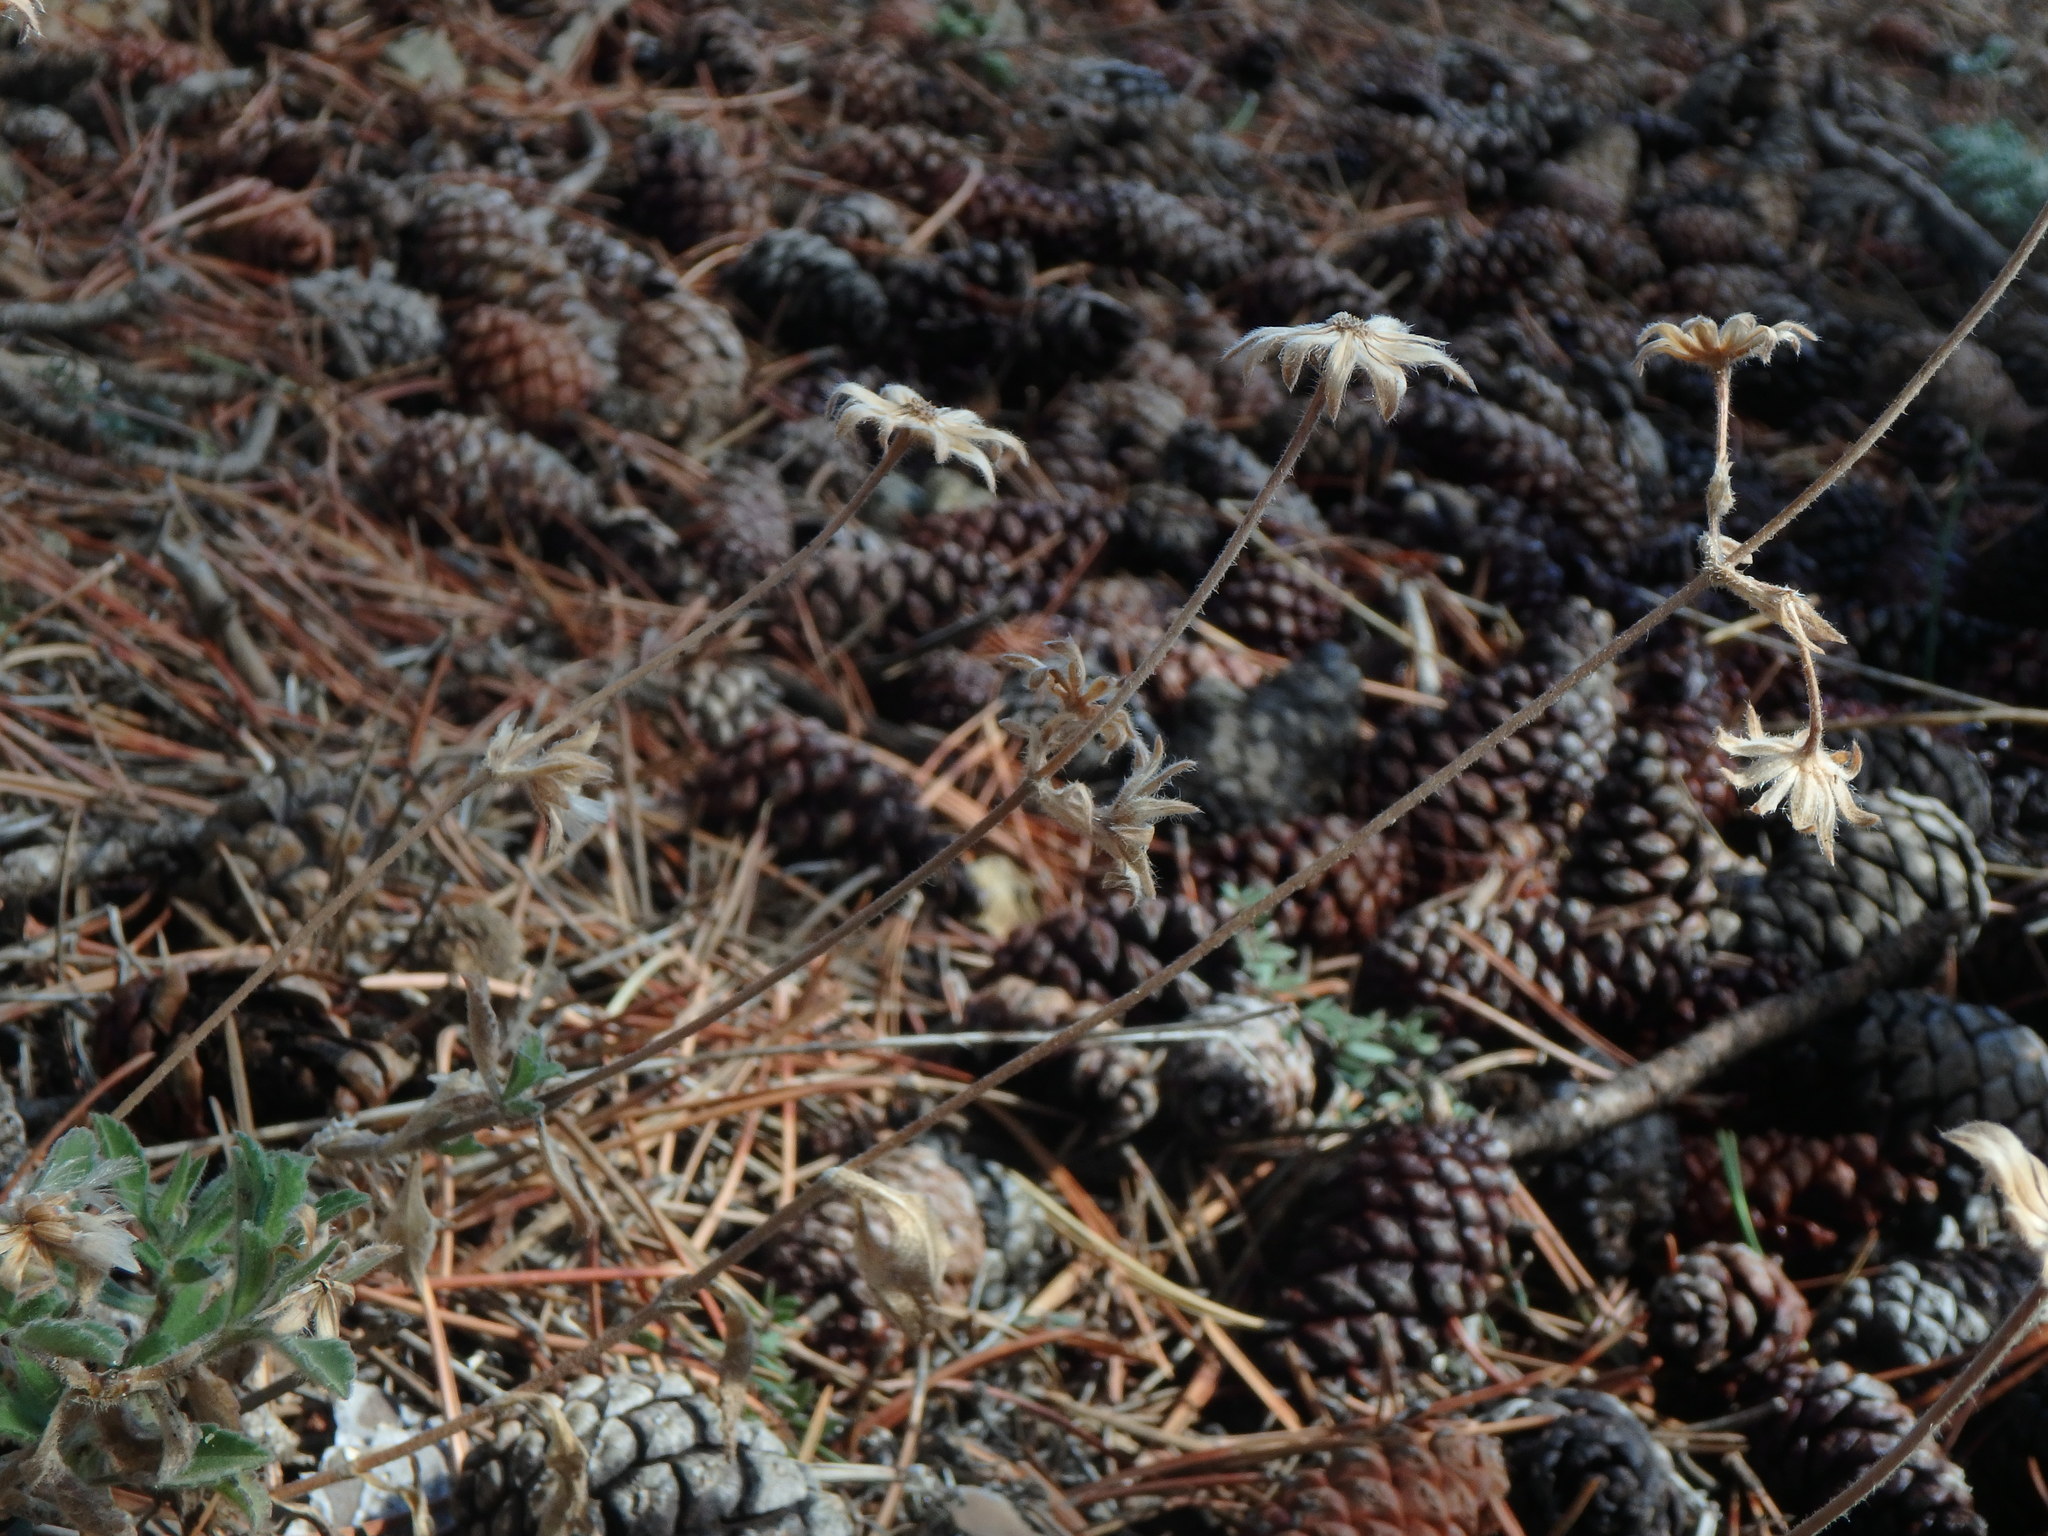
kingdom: Plantae
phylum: Tracheophyta
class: Magnoliopsida
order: Dipsacales
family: Caprifoliaceae
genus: Pterocephalus
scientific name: Pterocephalus multiflorus
